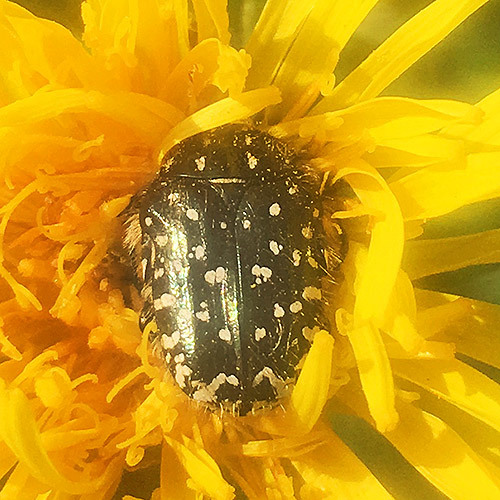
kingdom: Animalia
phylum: Arthropoda
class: Insecta
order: Coleoptera
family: Scarabaeidae
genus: Oxythyrea
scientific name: Oxythyrea funesta
